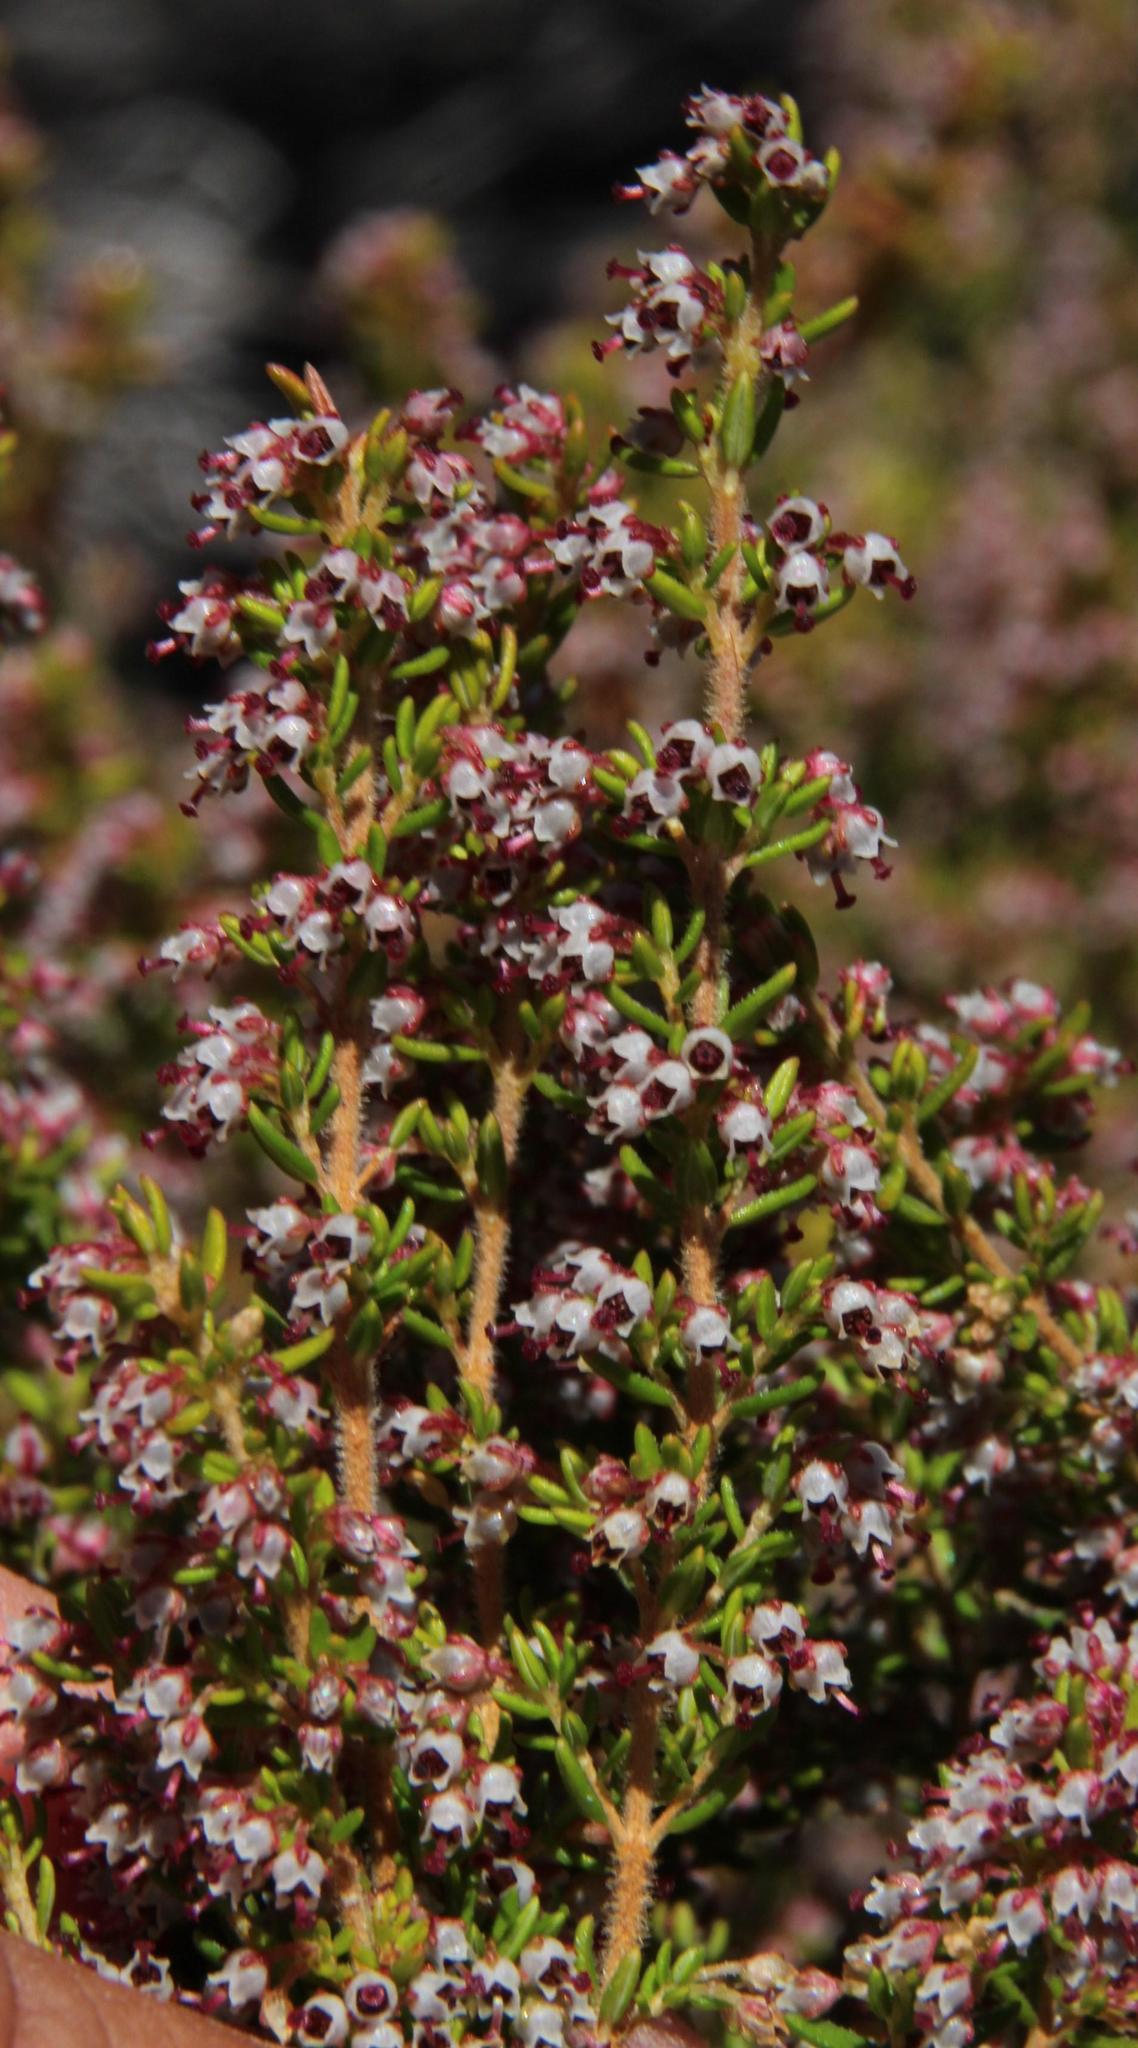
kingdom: Plantae
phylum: Tracheophyta
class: Magnoliopsida
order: Ericales
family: Ericaceae
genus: Erica
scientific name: Erica hispidula
